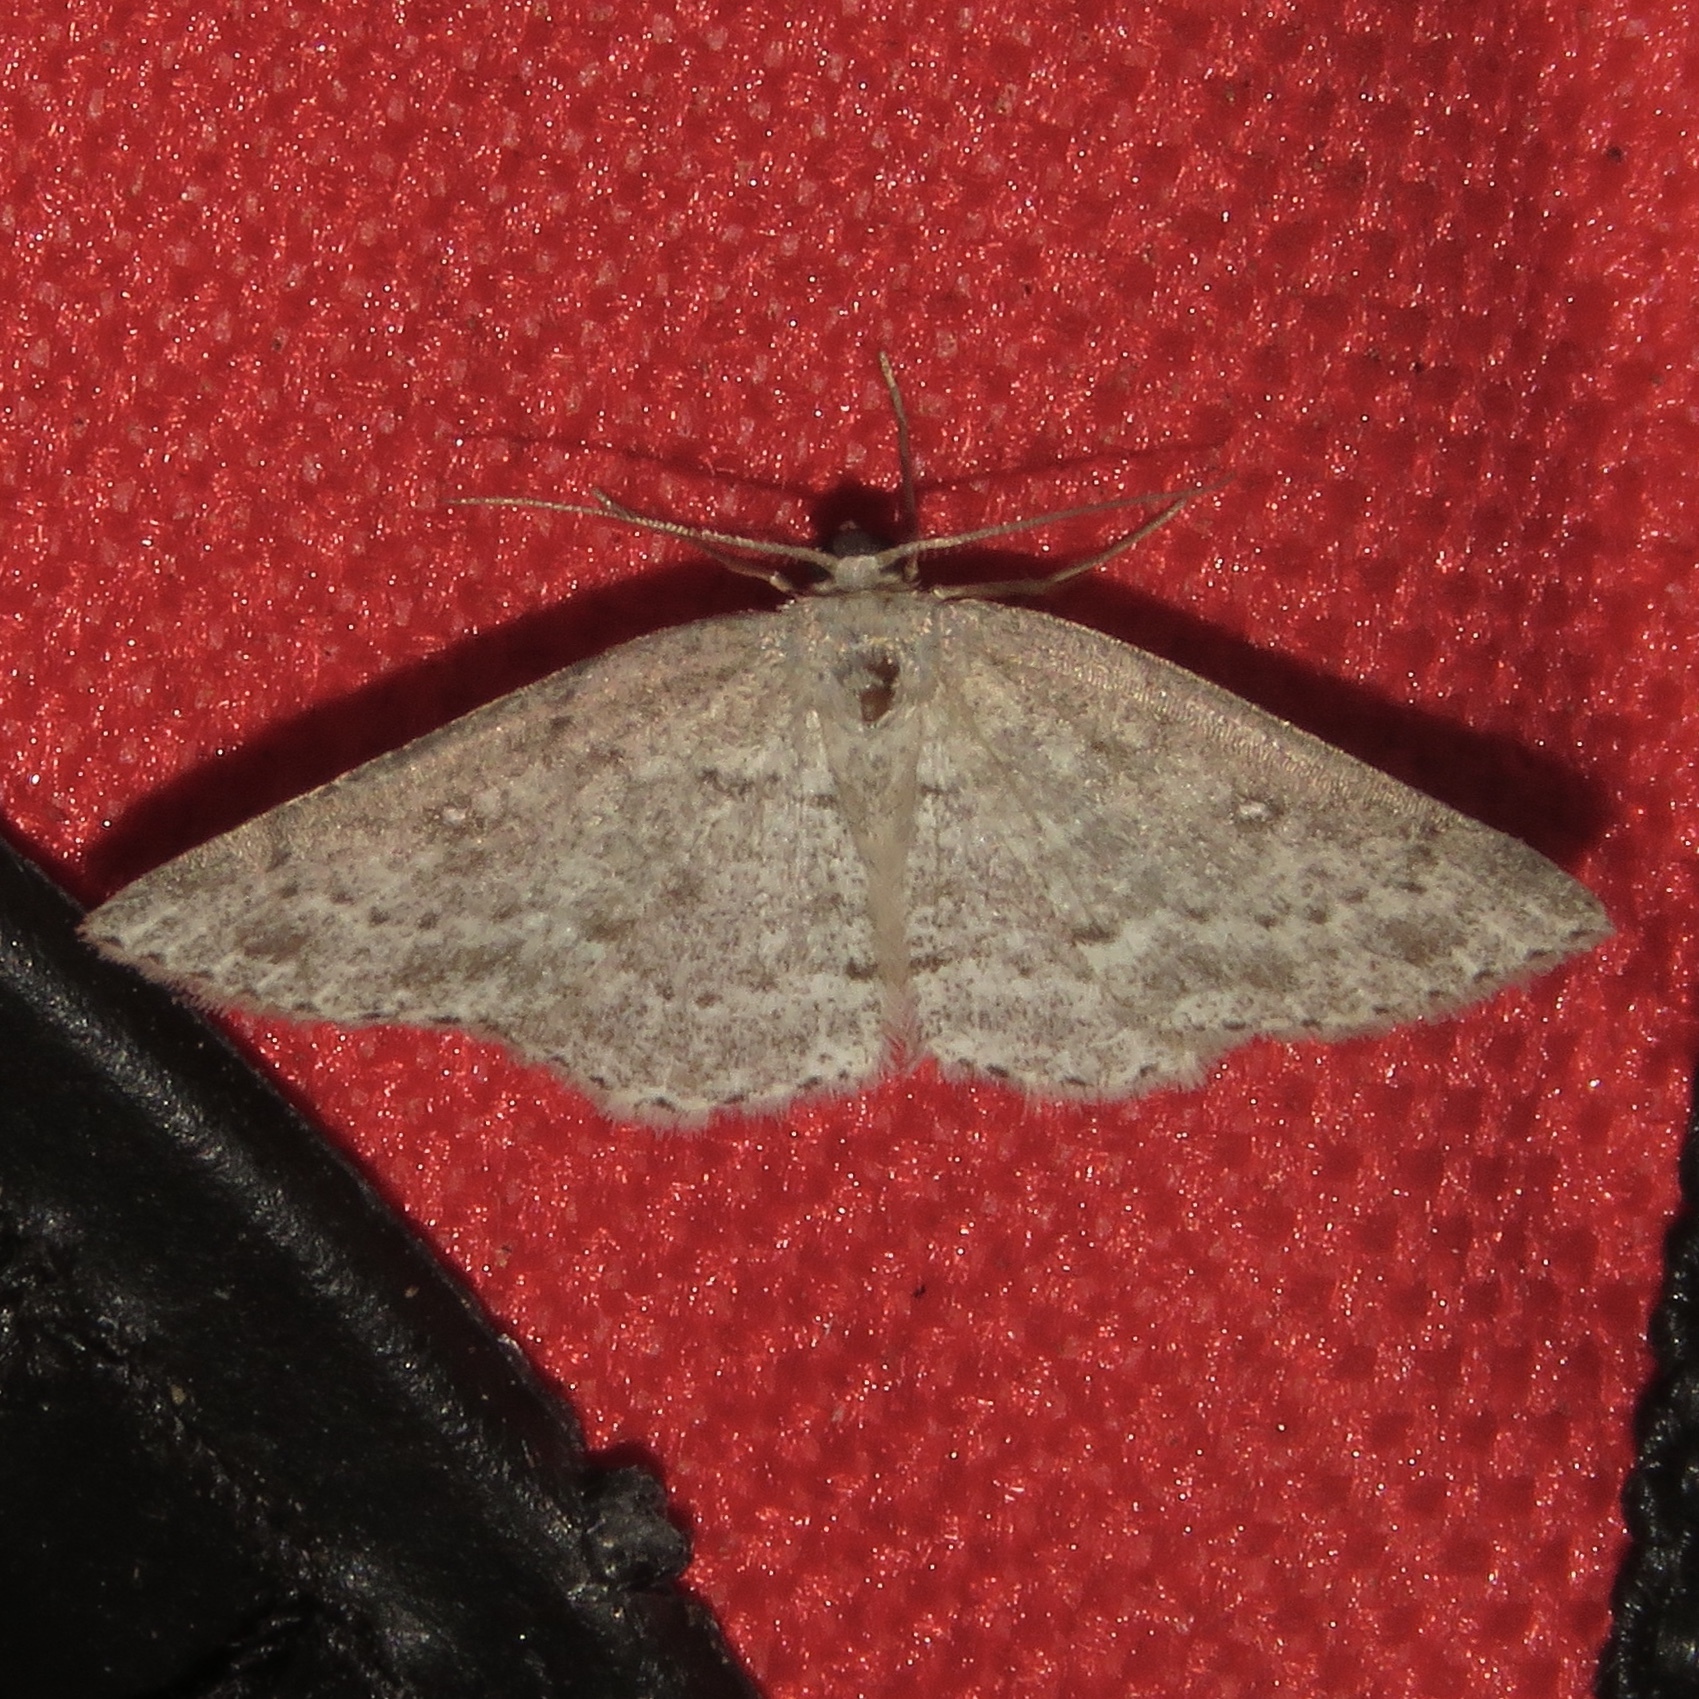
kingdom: Animalia
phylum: Arthropoda
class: Insecta
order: Lepidoptera
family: Geometridae
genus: Cyclophora
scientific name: Cyclophora pendulinaria
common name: Sweet fern geometer
